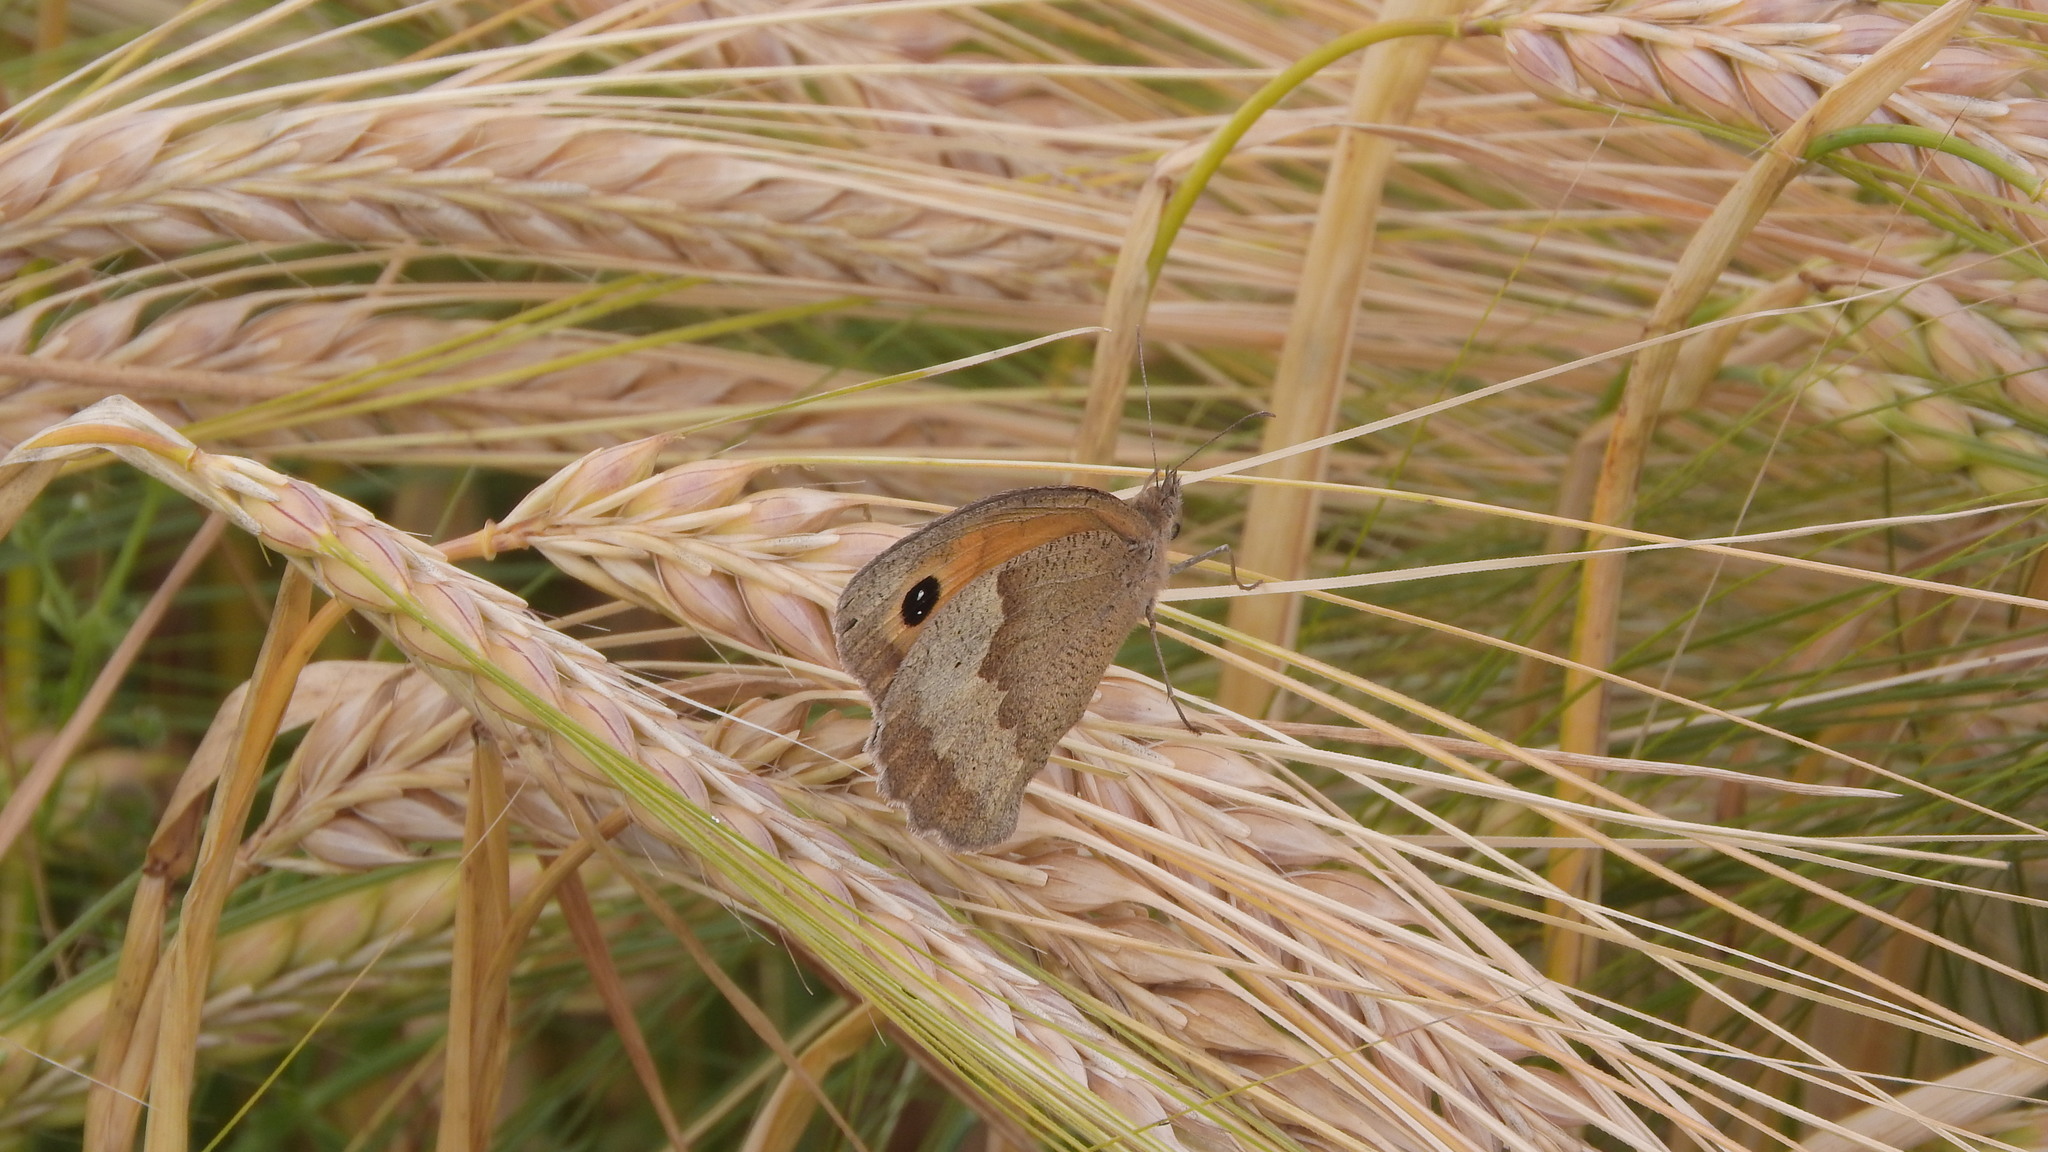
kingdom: Animalia
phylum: Arthropoda
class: Insecta
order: Lepidoptera
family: Nymphalidae
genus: Maniola
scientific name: Maniola jurtina
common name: Meadow brown
